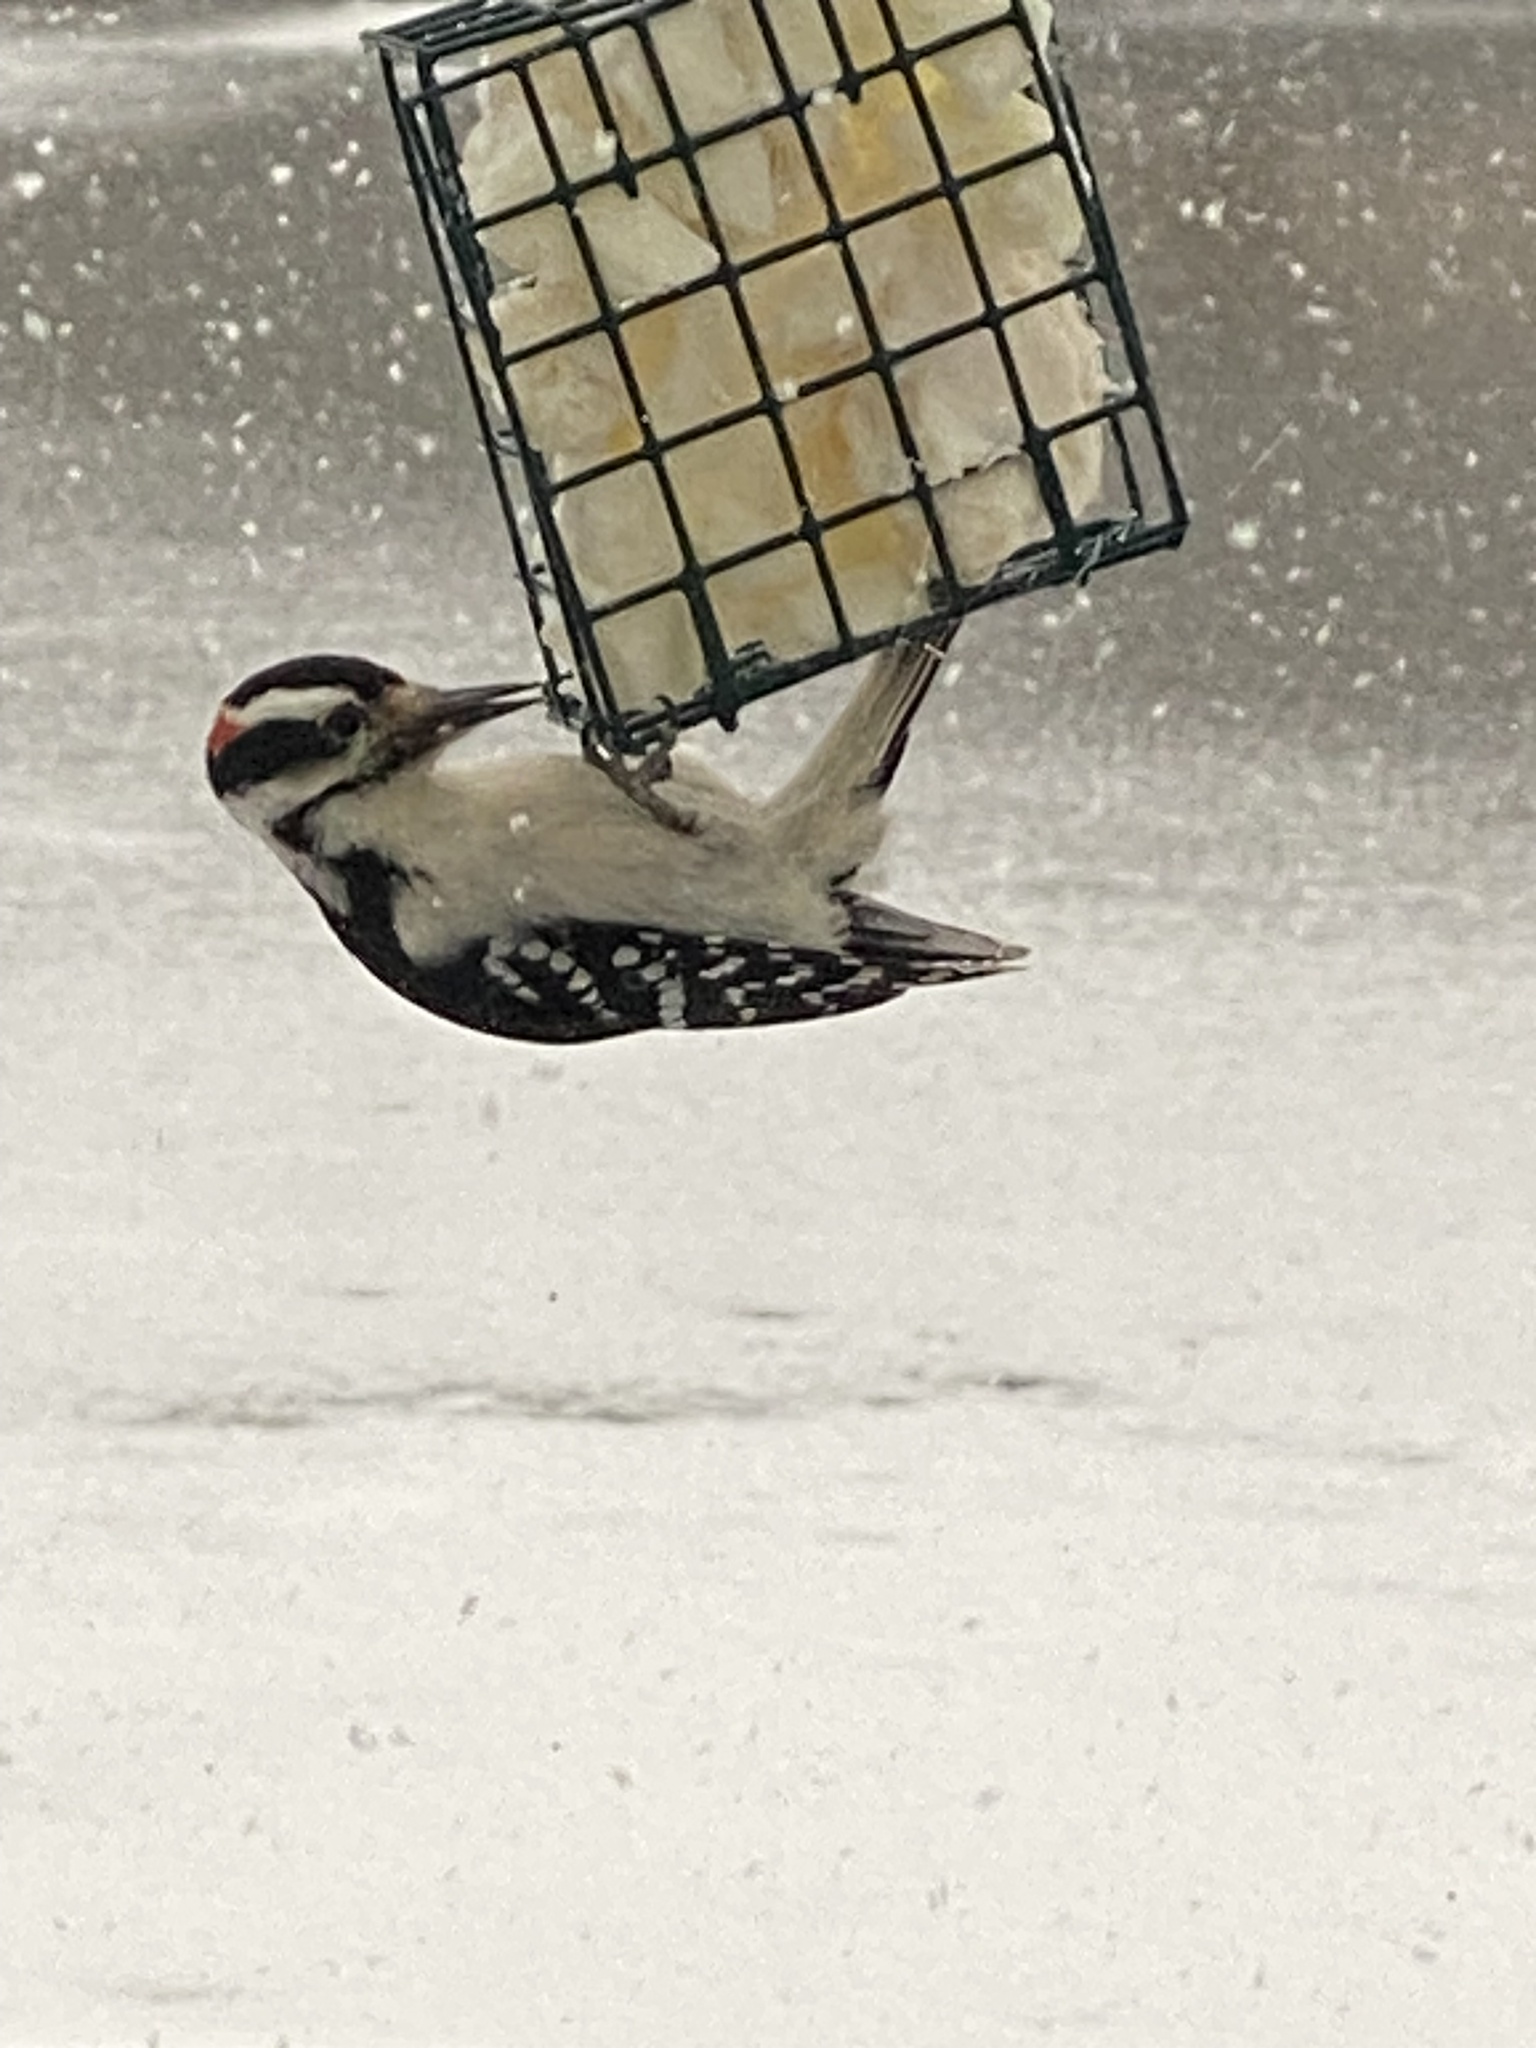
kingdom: Animalia
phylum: Chordata
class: Aves
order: Piciformes
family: Picidae
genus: Leuconotopicus
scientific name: Leuconotopicus villosus
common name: Hairy woodpecker
